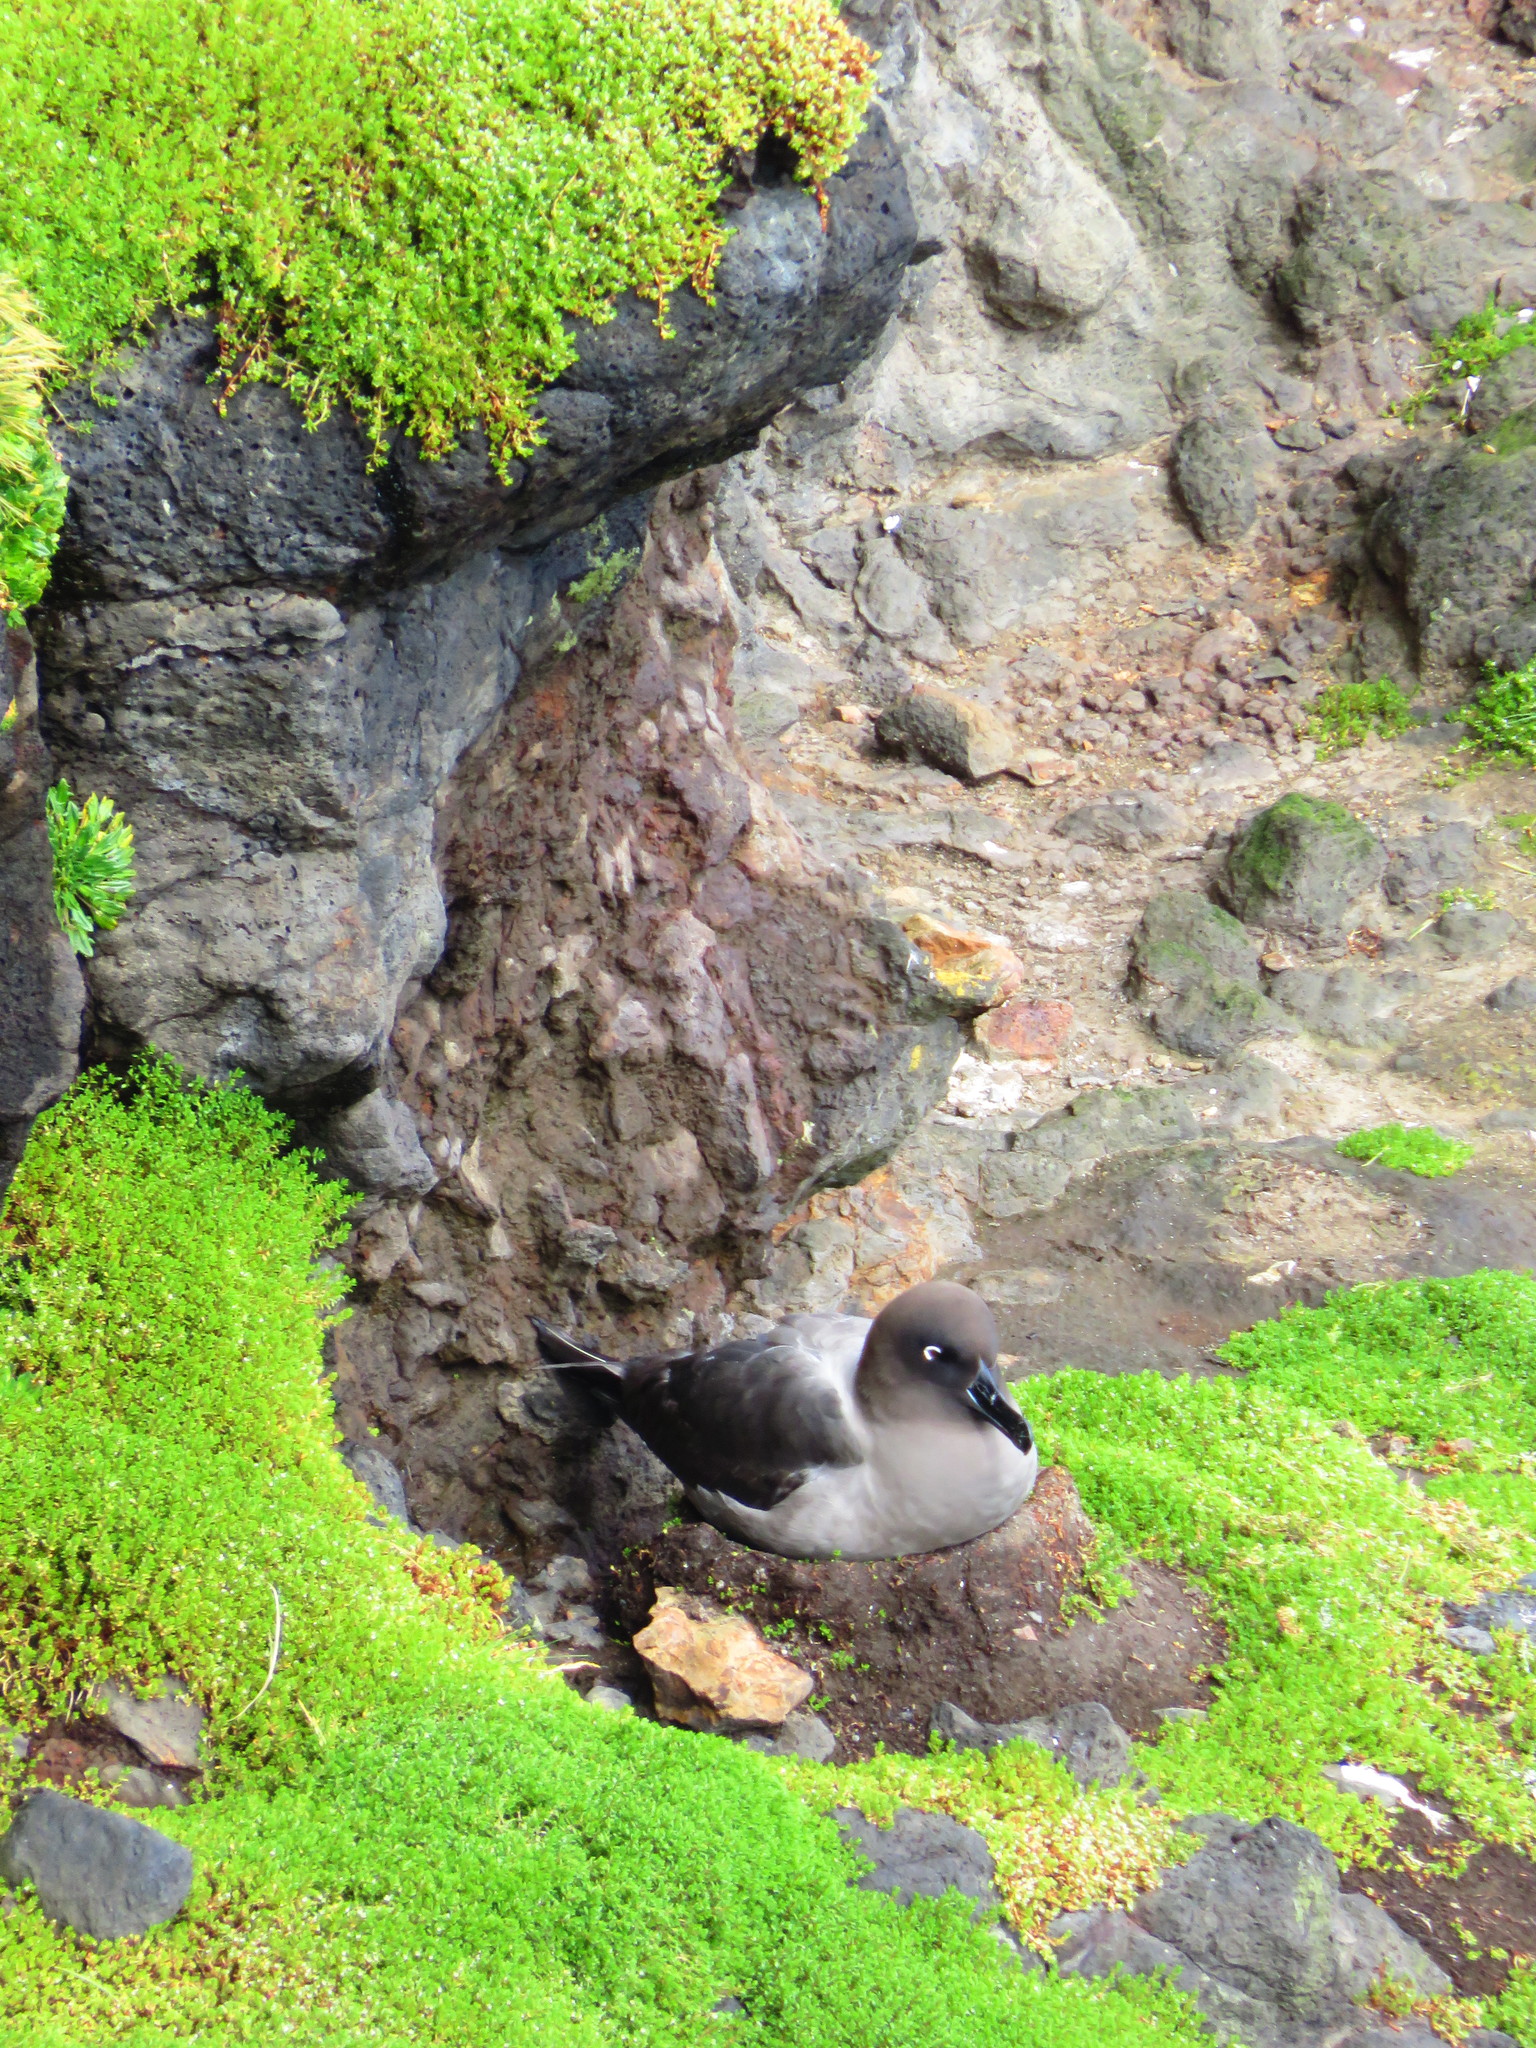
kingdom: Animalia
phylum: Chordata
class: Aves
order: Procellariiformes
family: Diomedeidae
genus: Phoebetria
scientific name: Phoebetria palpebrata
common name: Light-mantled albatross
